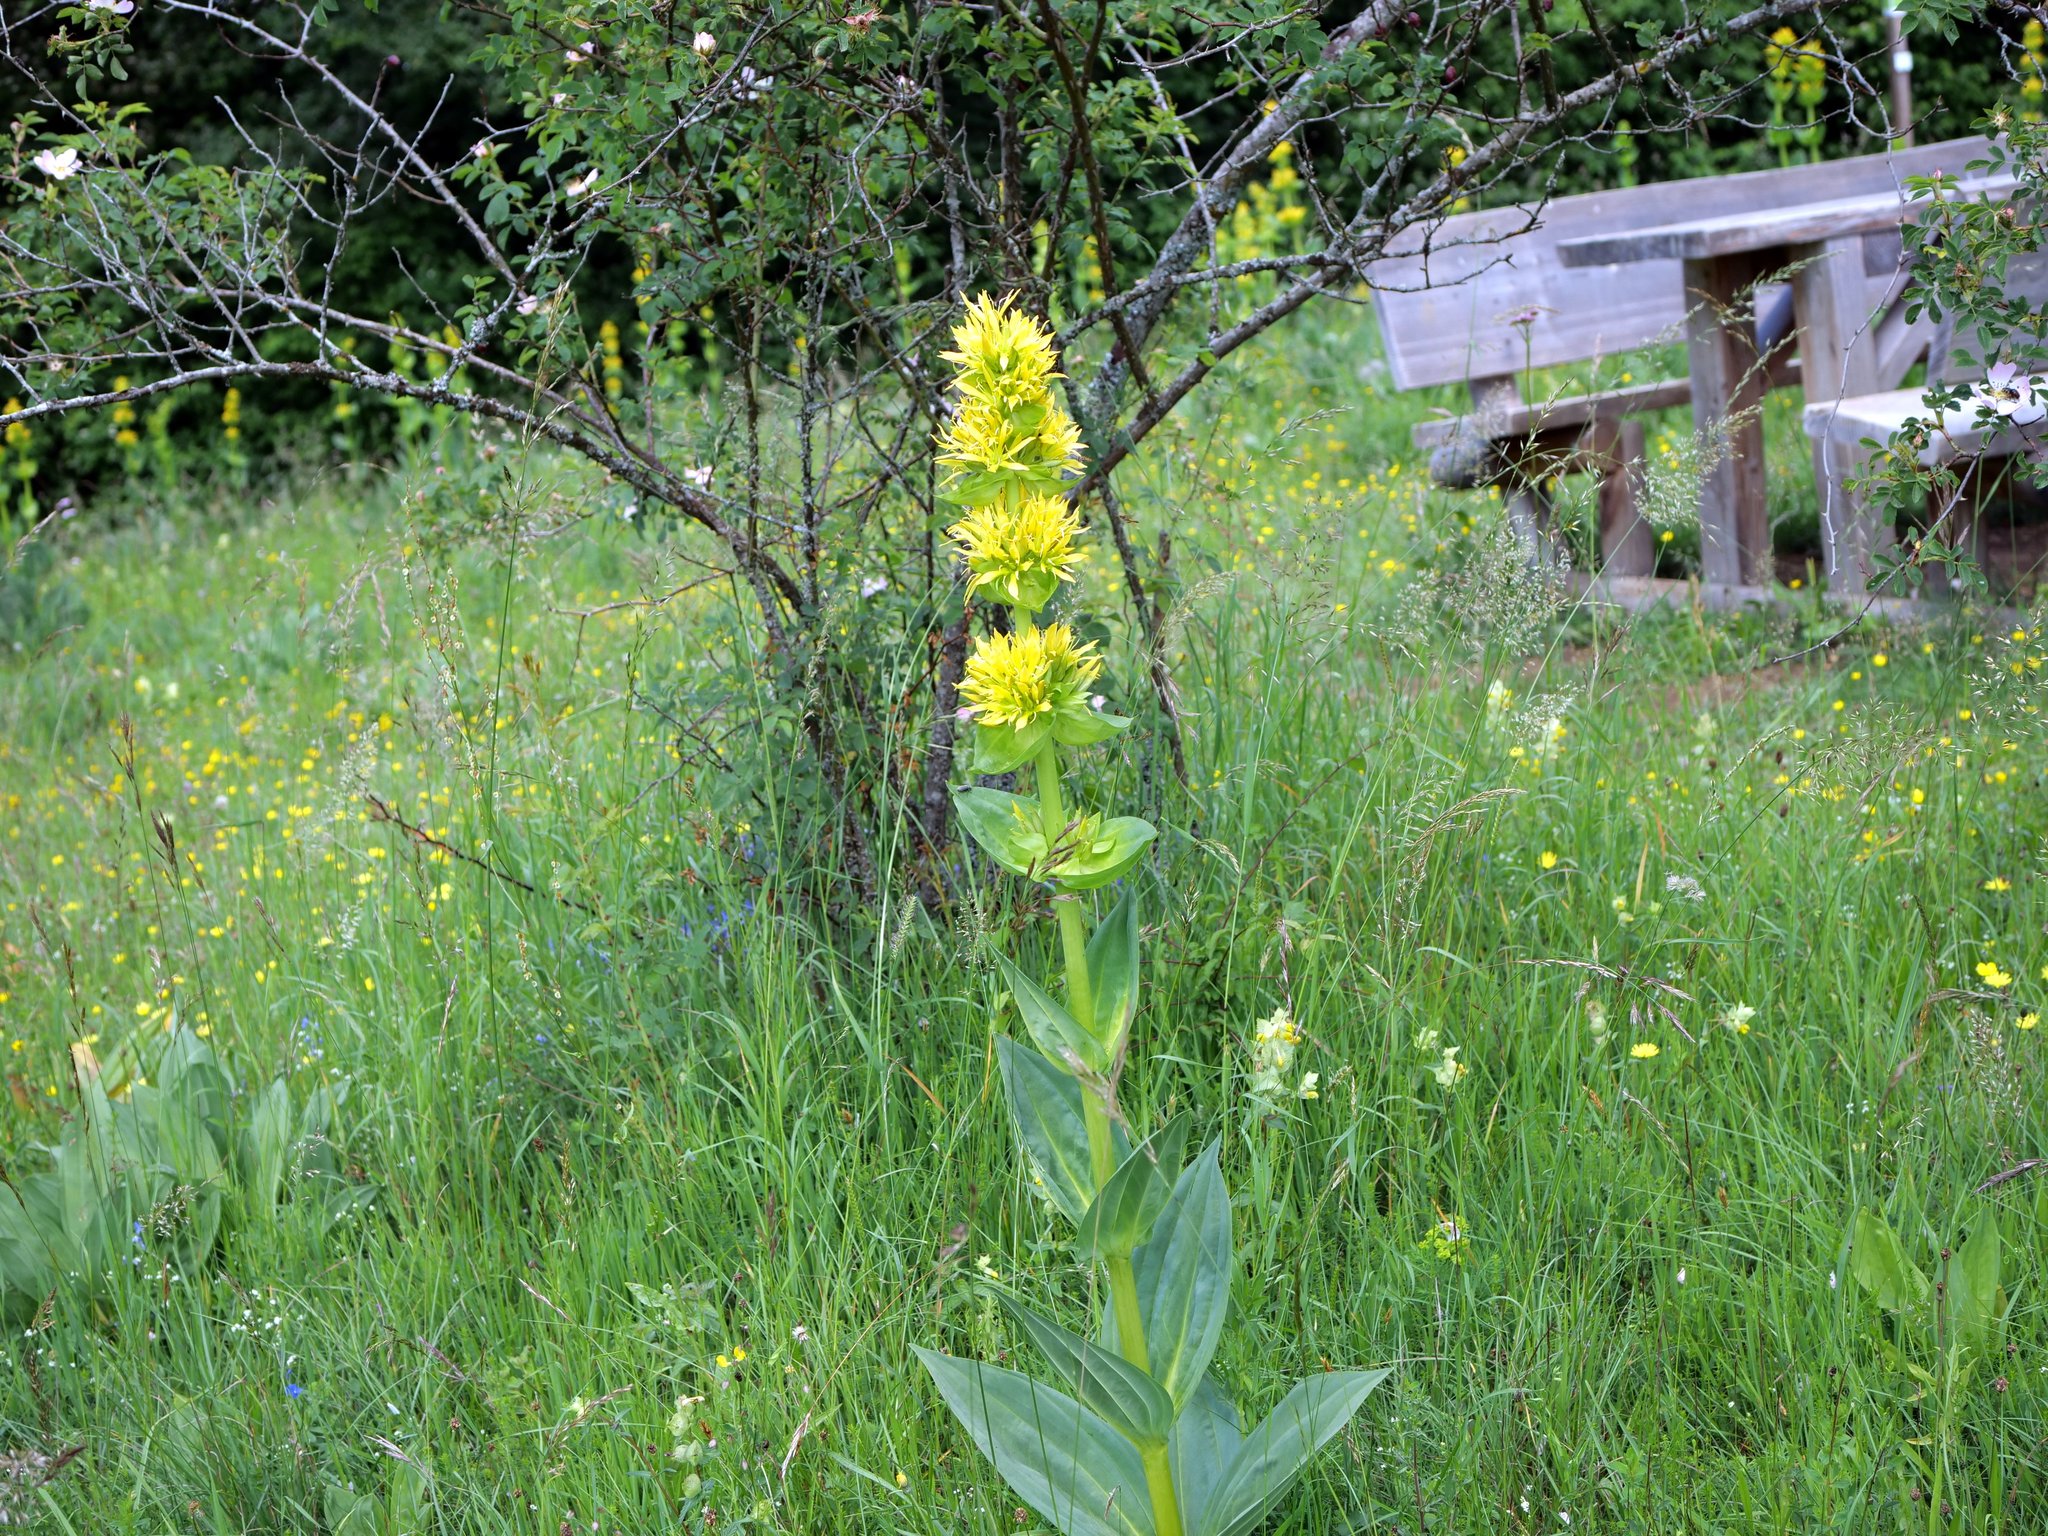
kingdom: Plantae
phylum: Tracheophyta
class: Magnoliopsida
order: Gentianales
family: Gentianaceae
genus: Gentiana
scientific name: Gentiana lutea
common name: Great yellow gentian
